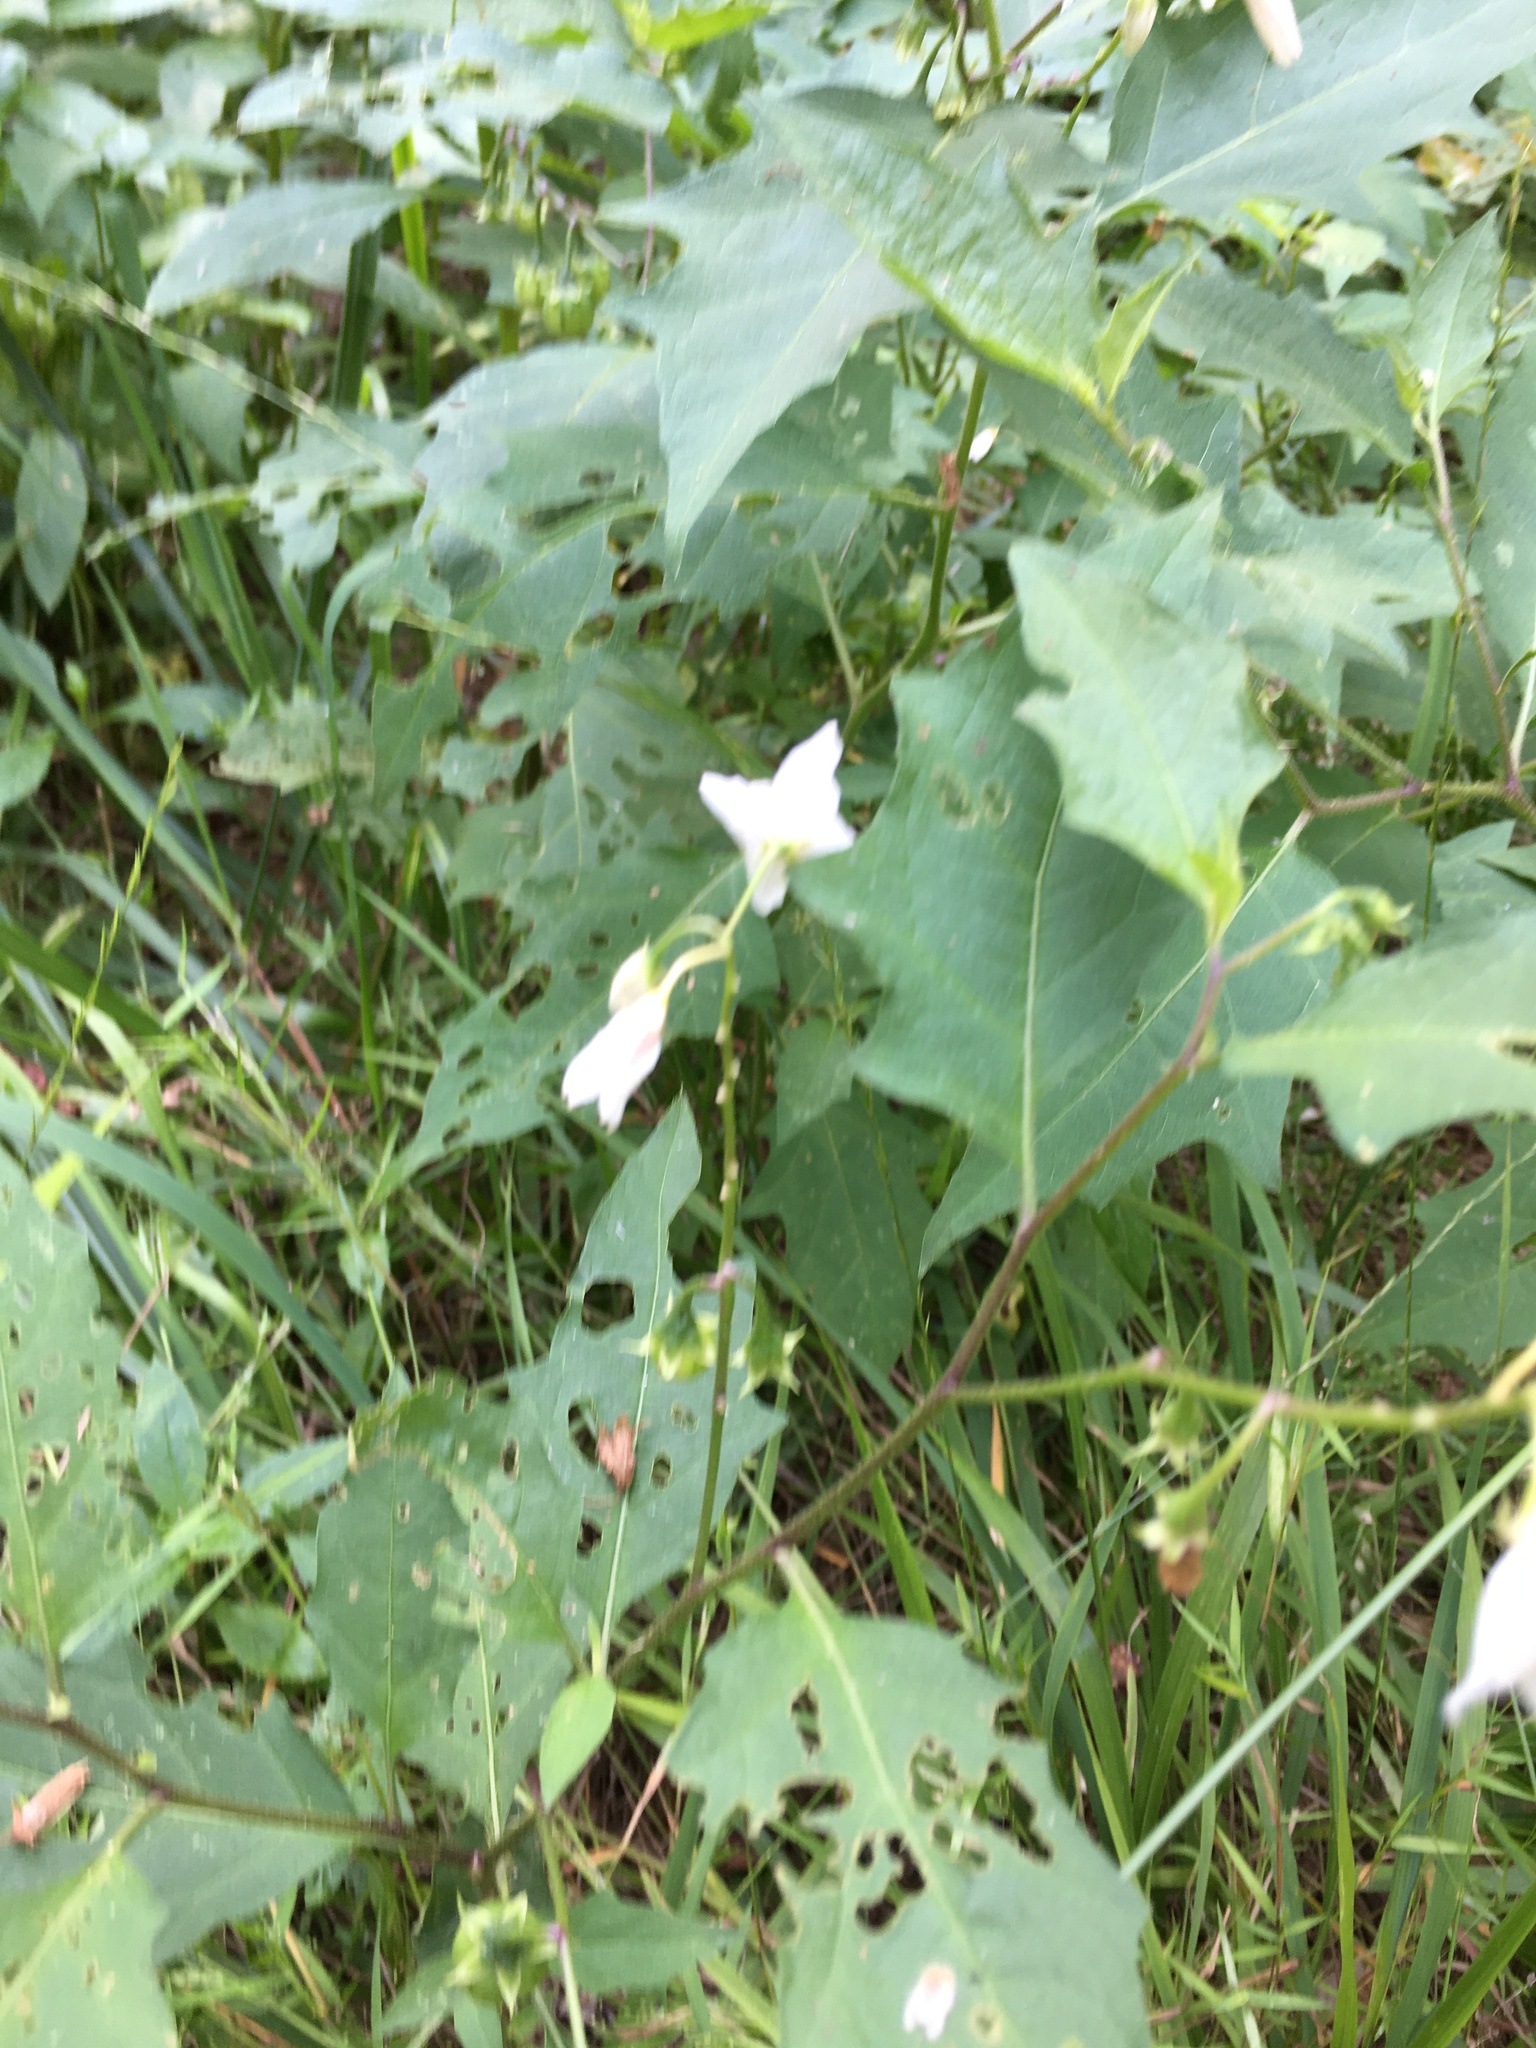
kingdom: Plantae
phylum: Tracheophyta
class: Magnoliopsida
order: Solanales
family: Solanaceae
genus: Solanum
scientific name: Solanum carolinense
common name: Horse-nettle
